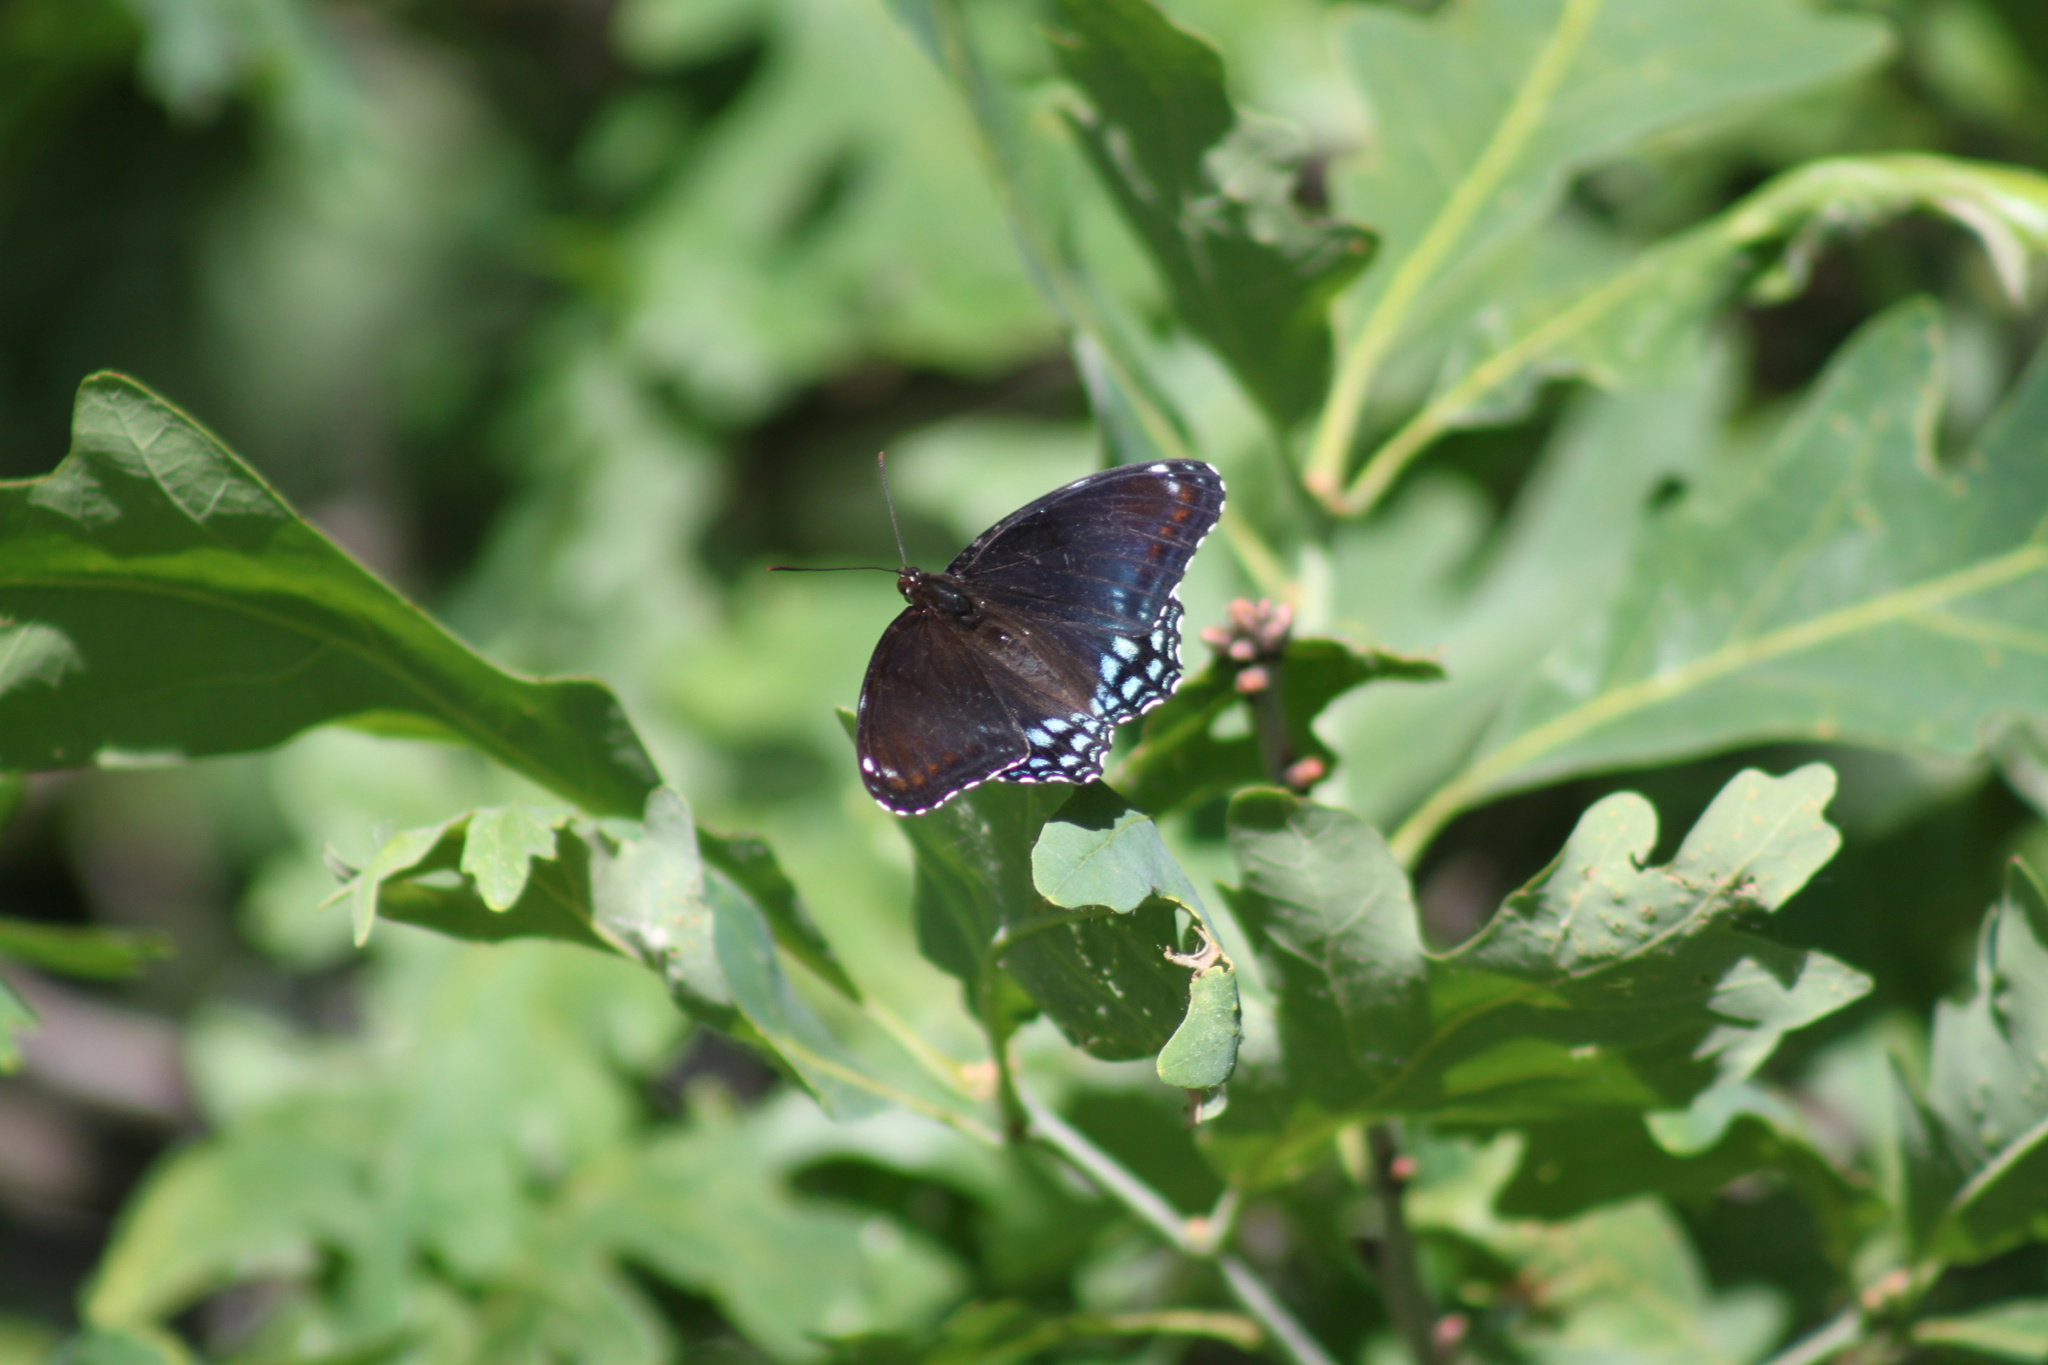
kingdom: Animalia
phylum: Arthropoda
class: Insecta
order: Lepidoptera
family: Nymphalidae
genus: Limenitis
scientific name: Limenitis astyanax
